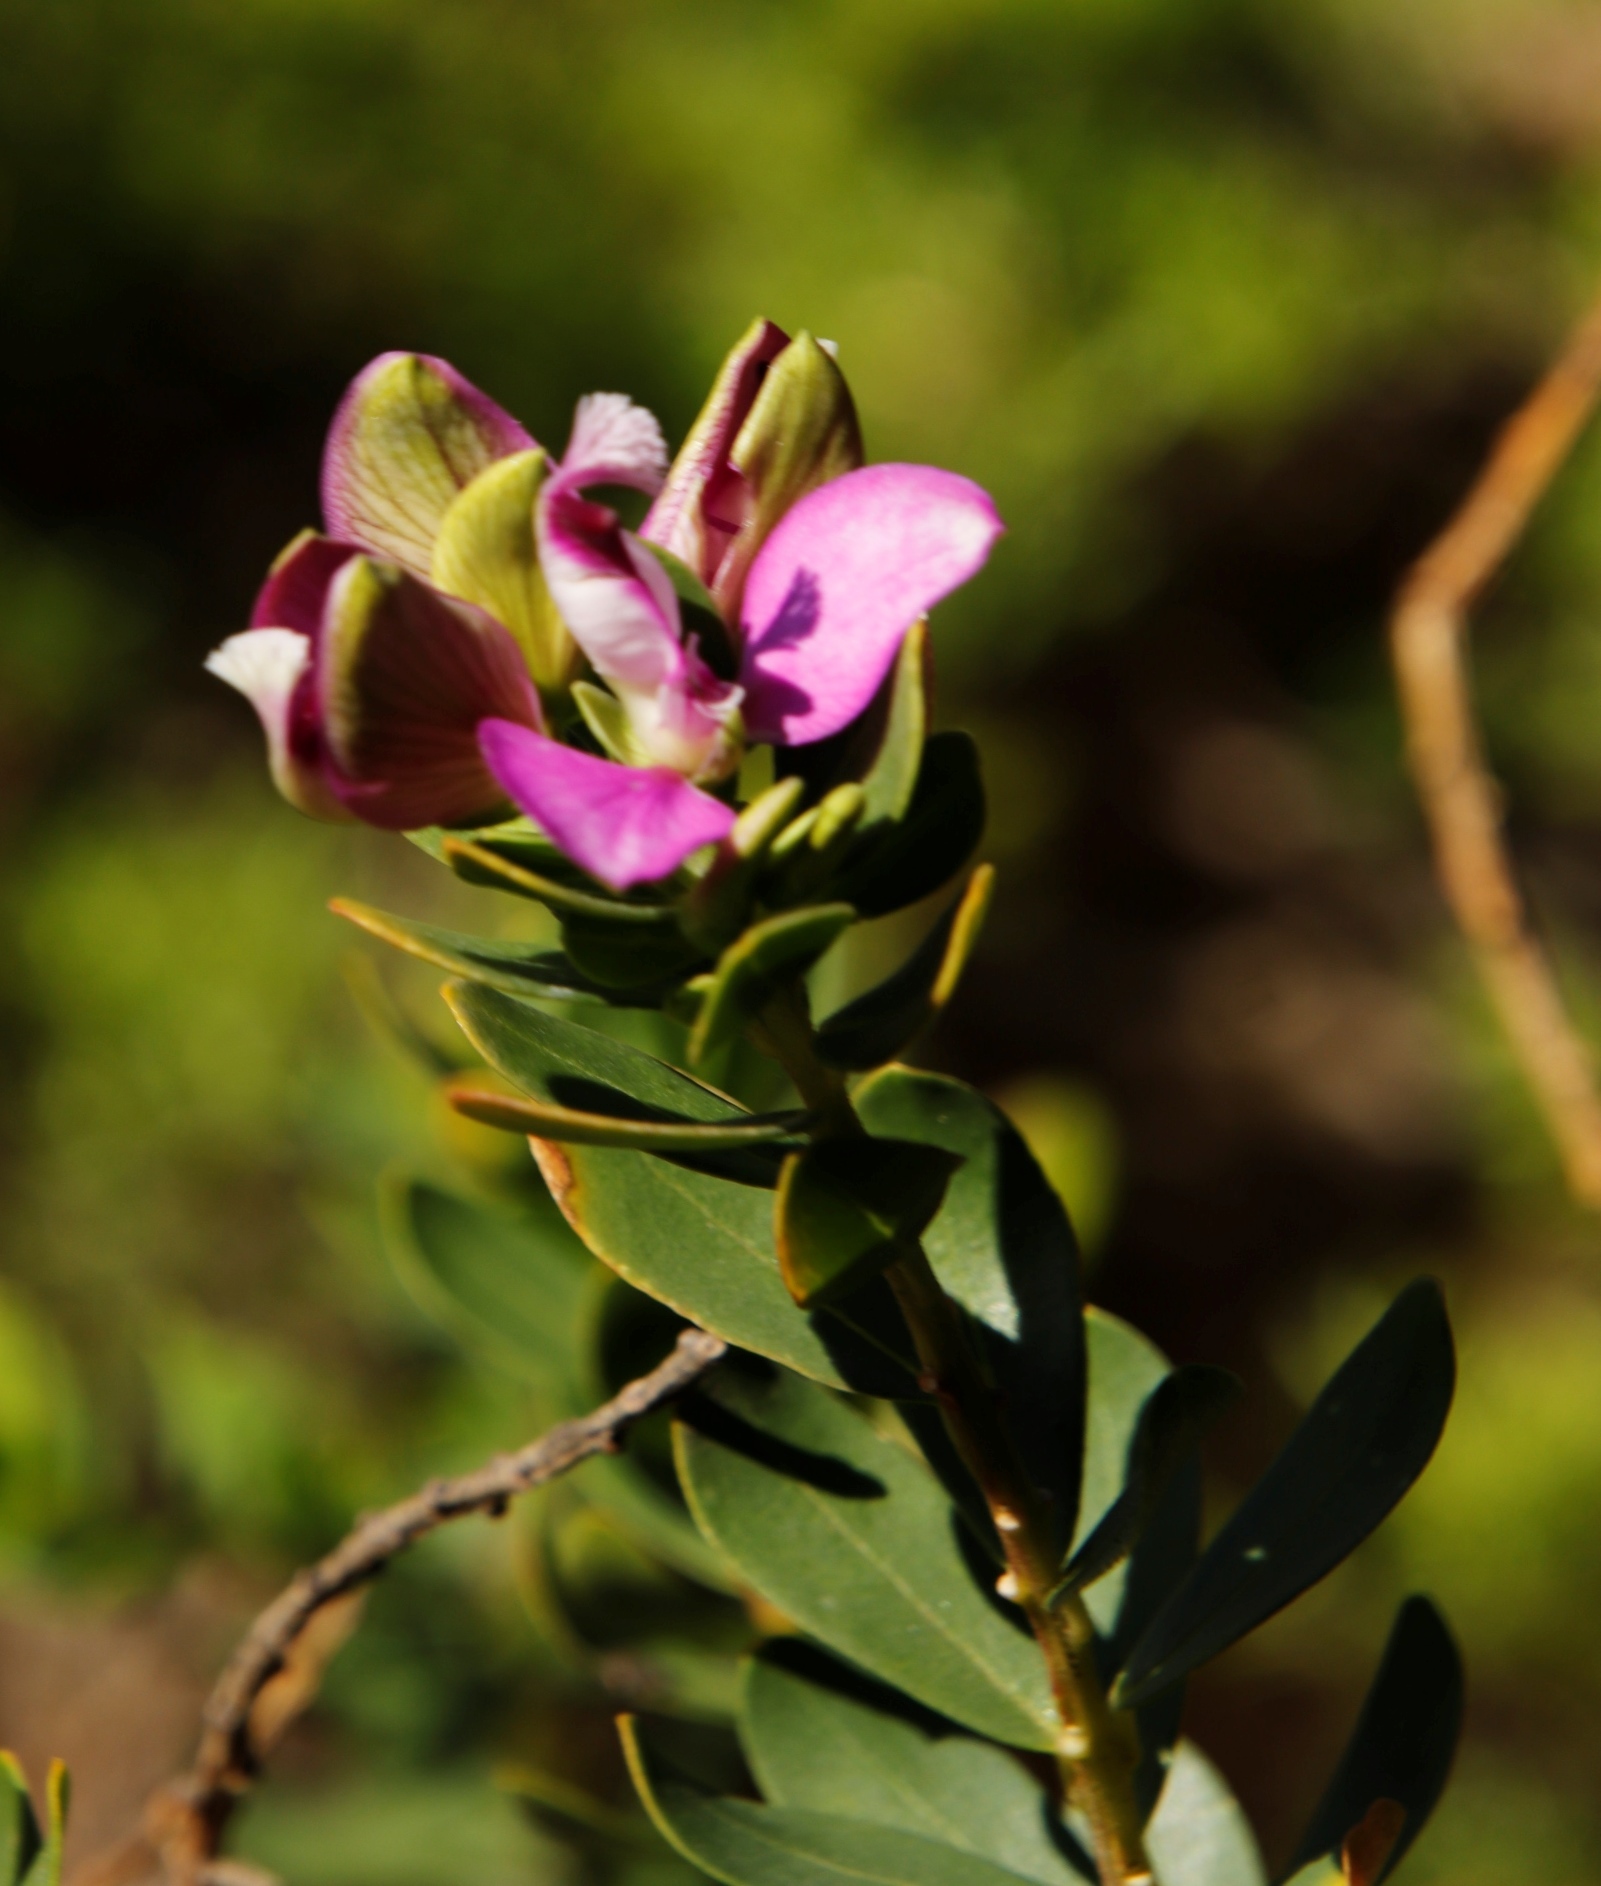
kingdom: Plantae
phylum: Tracheophyta
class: Magnoliopsida
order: Fabales
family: Polygalaceae
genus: Polygala
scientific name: Polygala myrtifolia
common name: Myrtle-leaf milkwort
